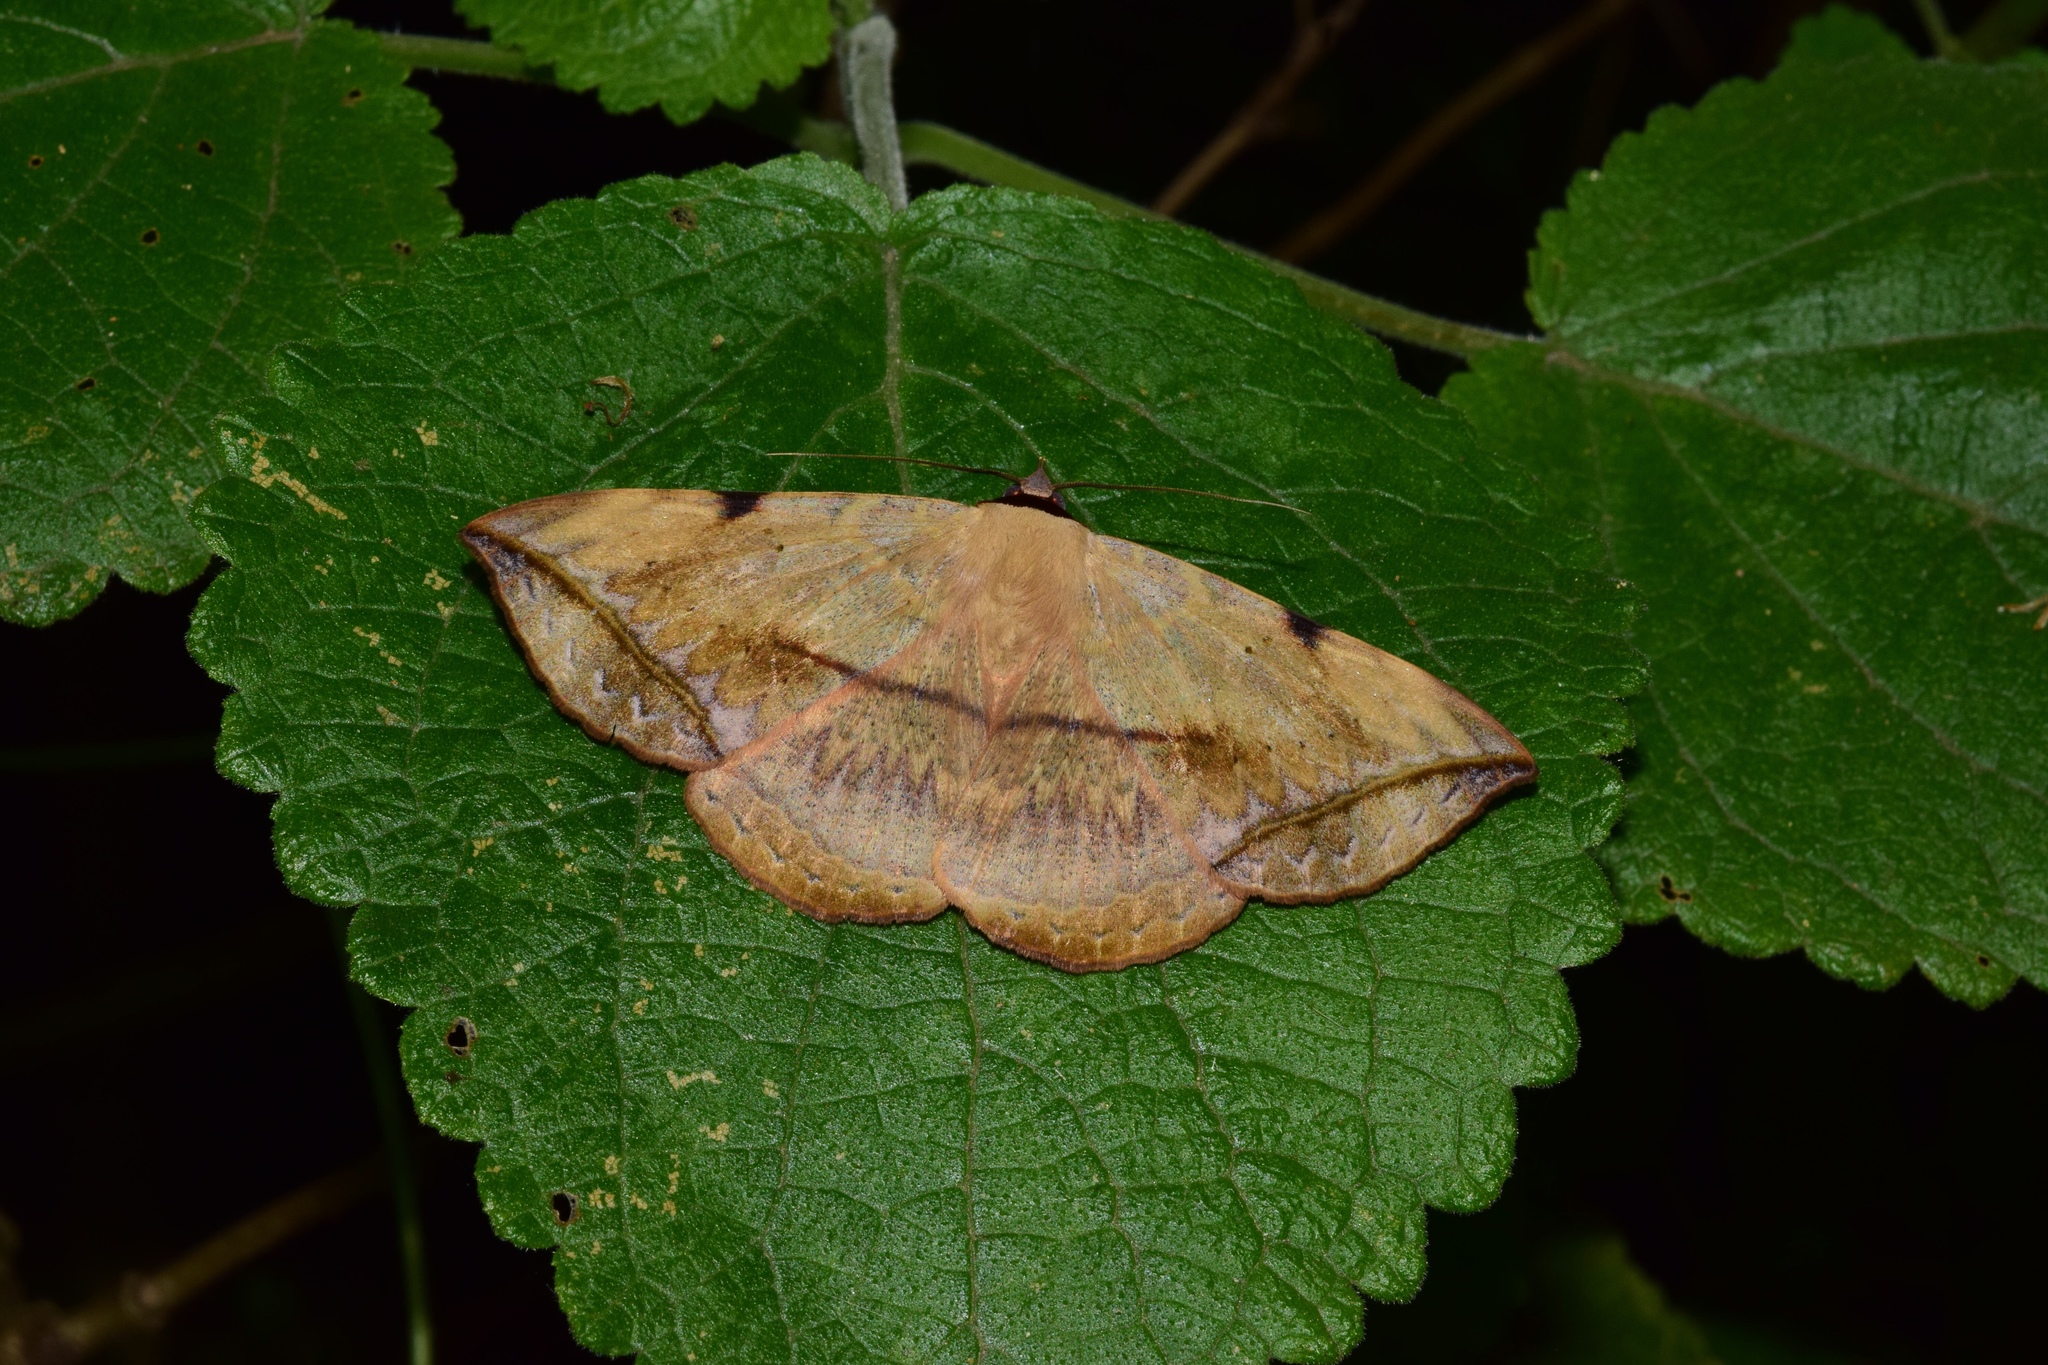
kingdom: Animalia
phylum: Arthropoda
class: Insecta
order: Lepidoptera
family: Erebidae
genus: Hypopyra
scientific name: Hypopyra capensis
